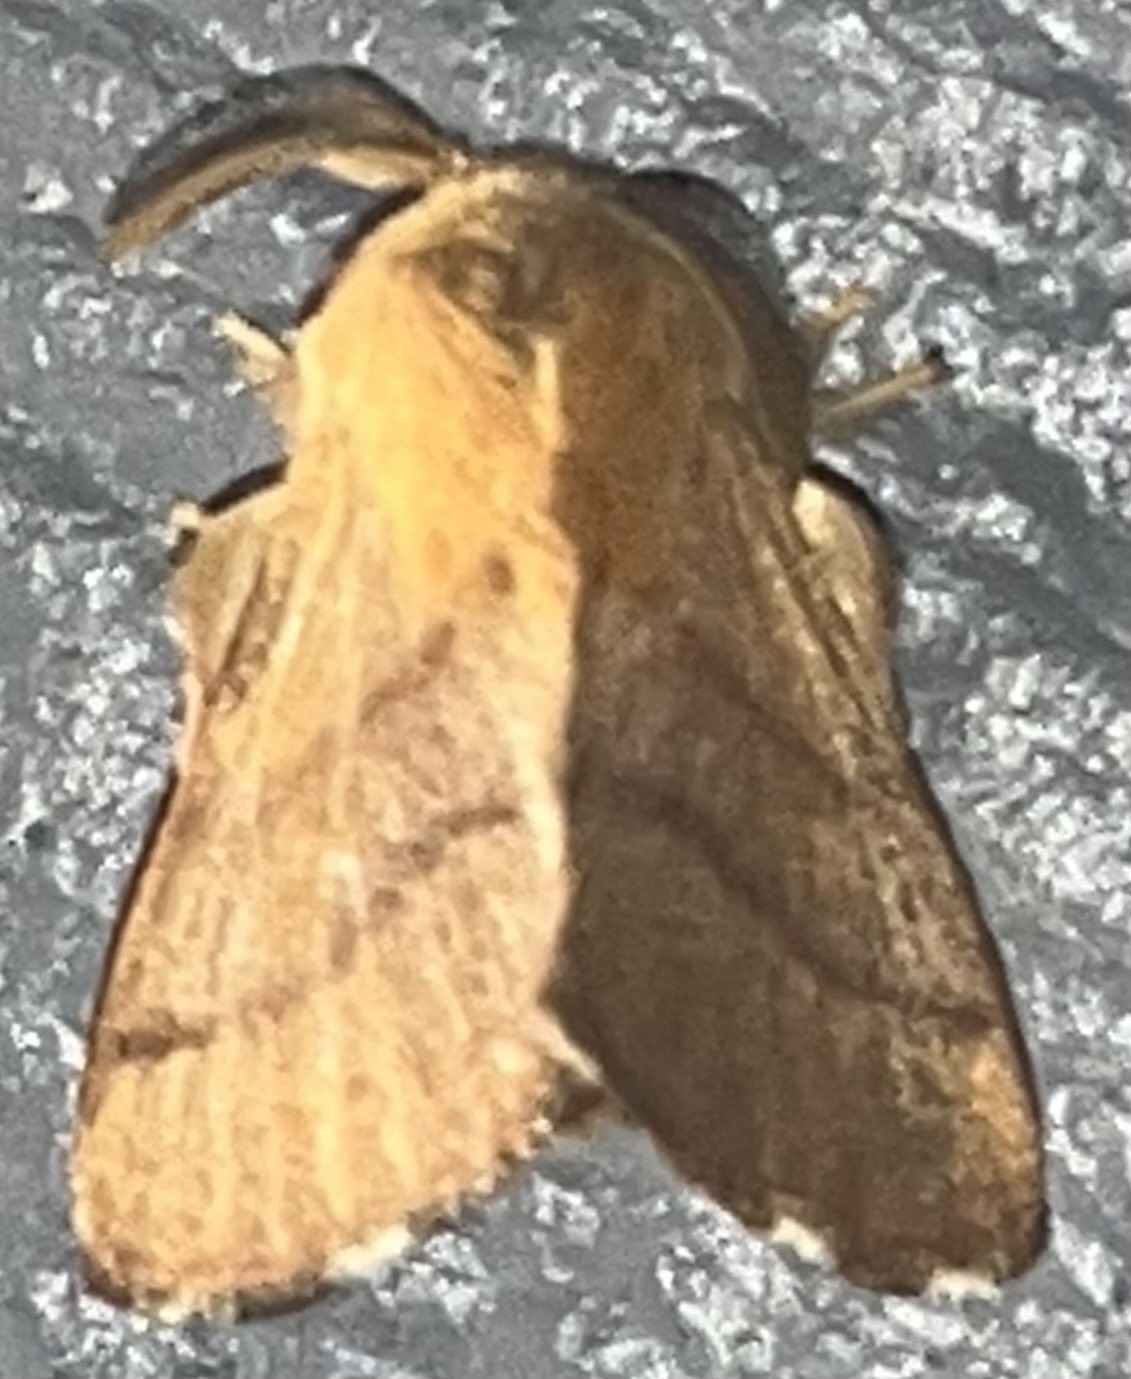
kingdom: Animalia
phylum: Arthropoda
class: Insecta
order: Lepidoptera
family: Lasiocampidae
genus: Malacosoma
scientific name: Malacosoma disstria
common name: Forest tent caterpillar
